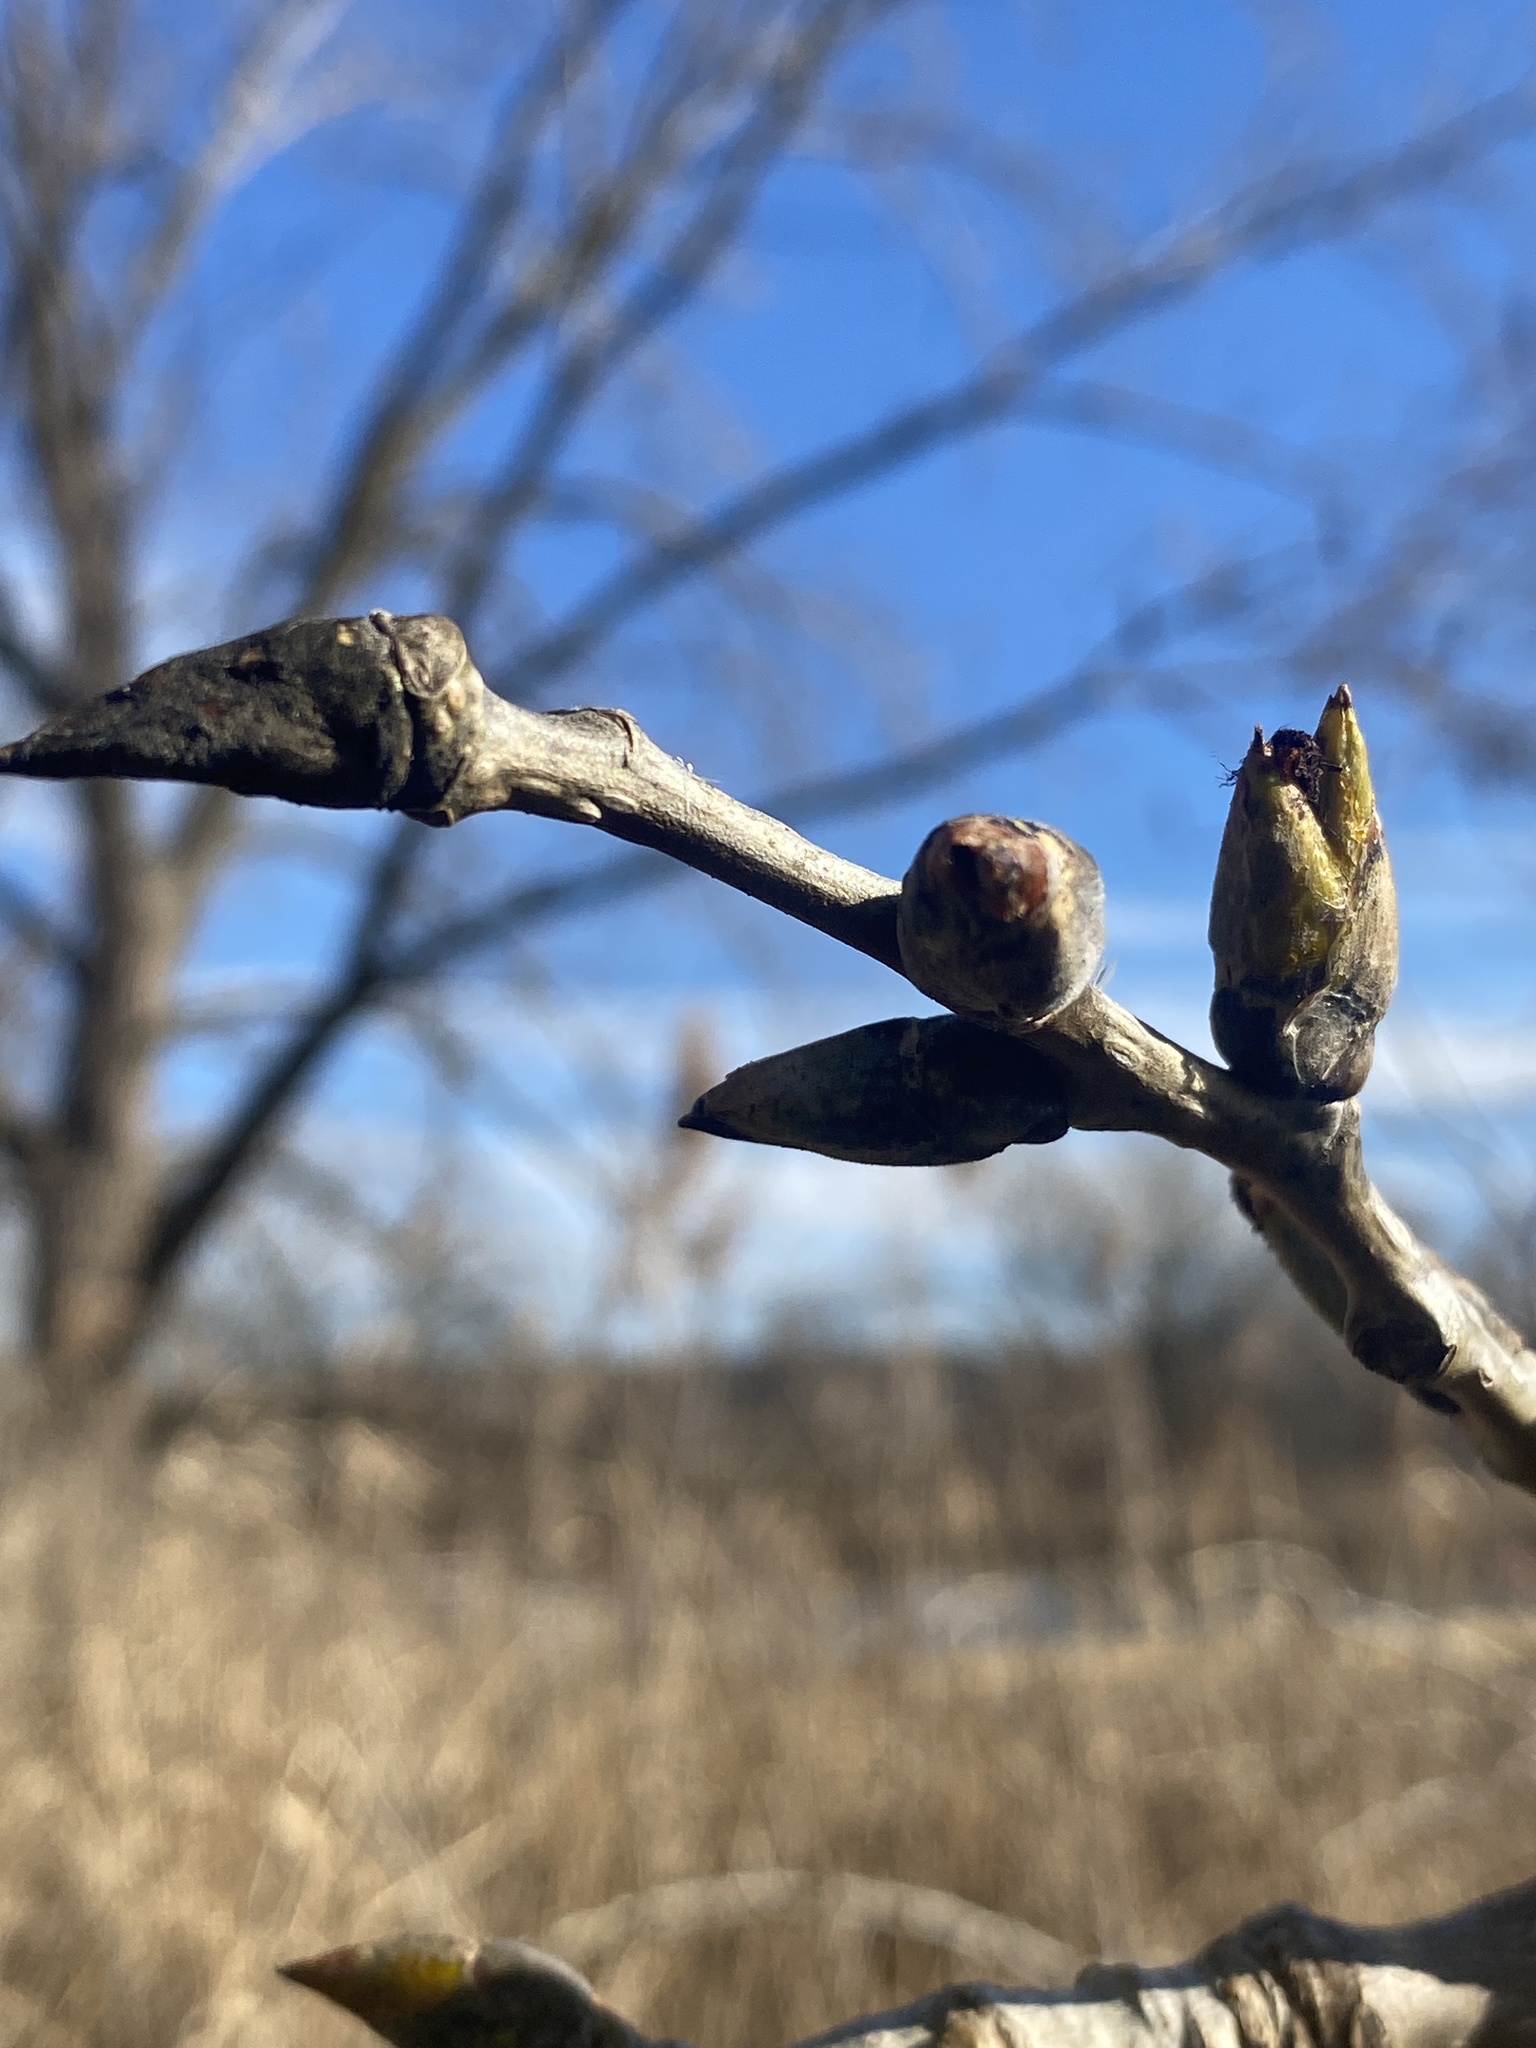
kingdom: Plantae
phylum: Tracheophyta
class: Magnoliopsida
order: Malpighiales
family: Salicaceae
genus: Populus
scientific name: Populus deltoides
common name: Eastern cottonwood
